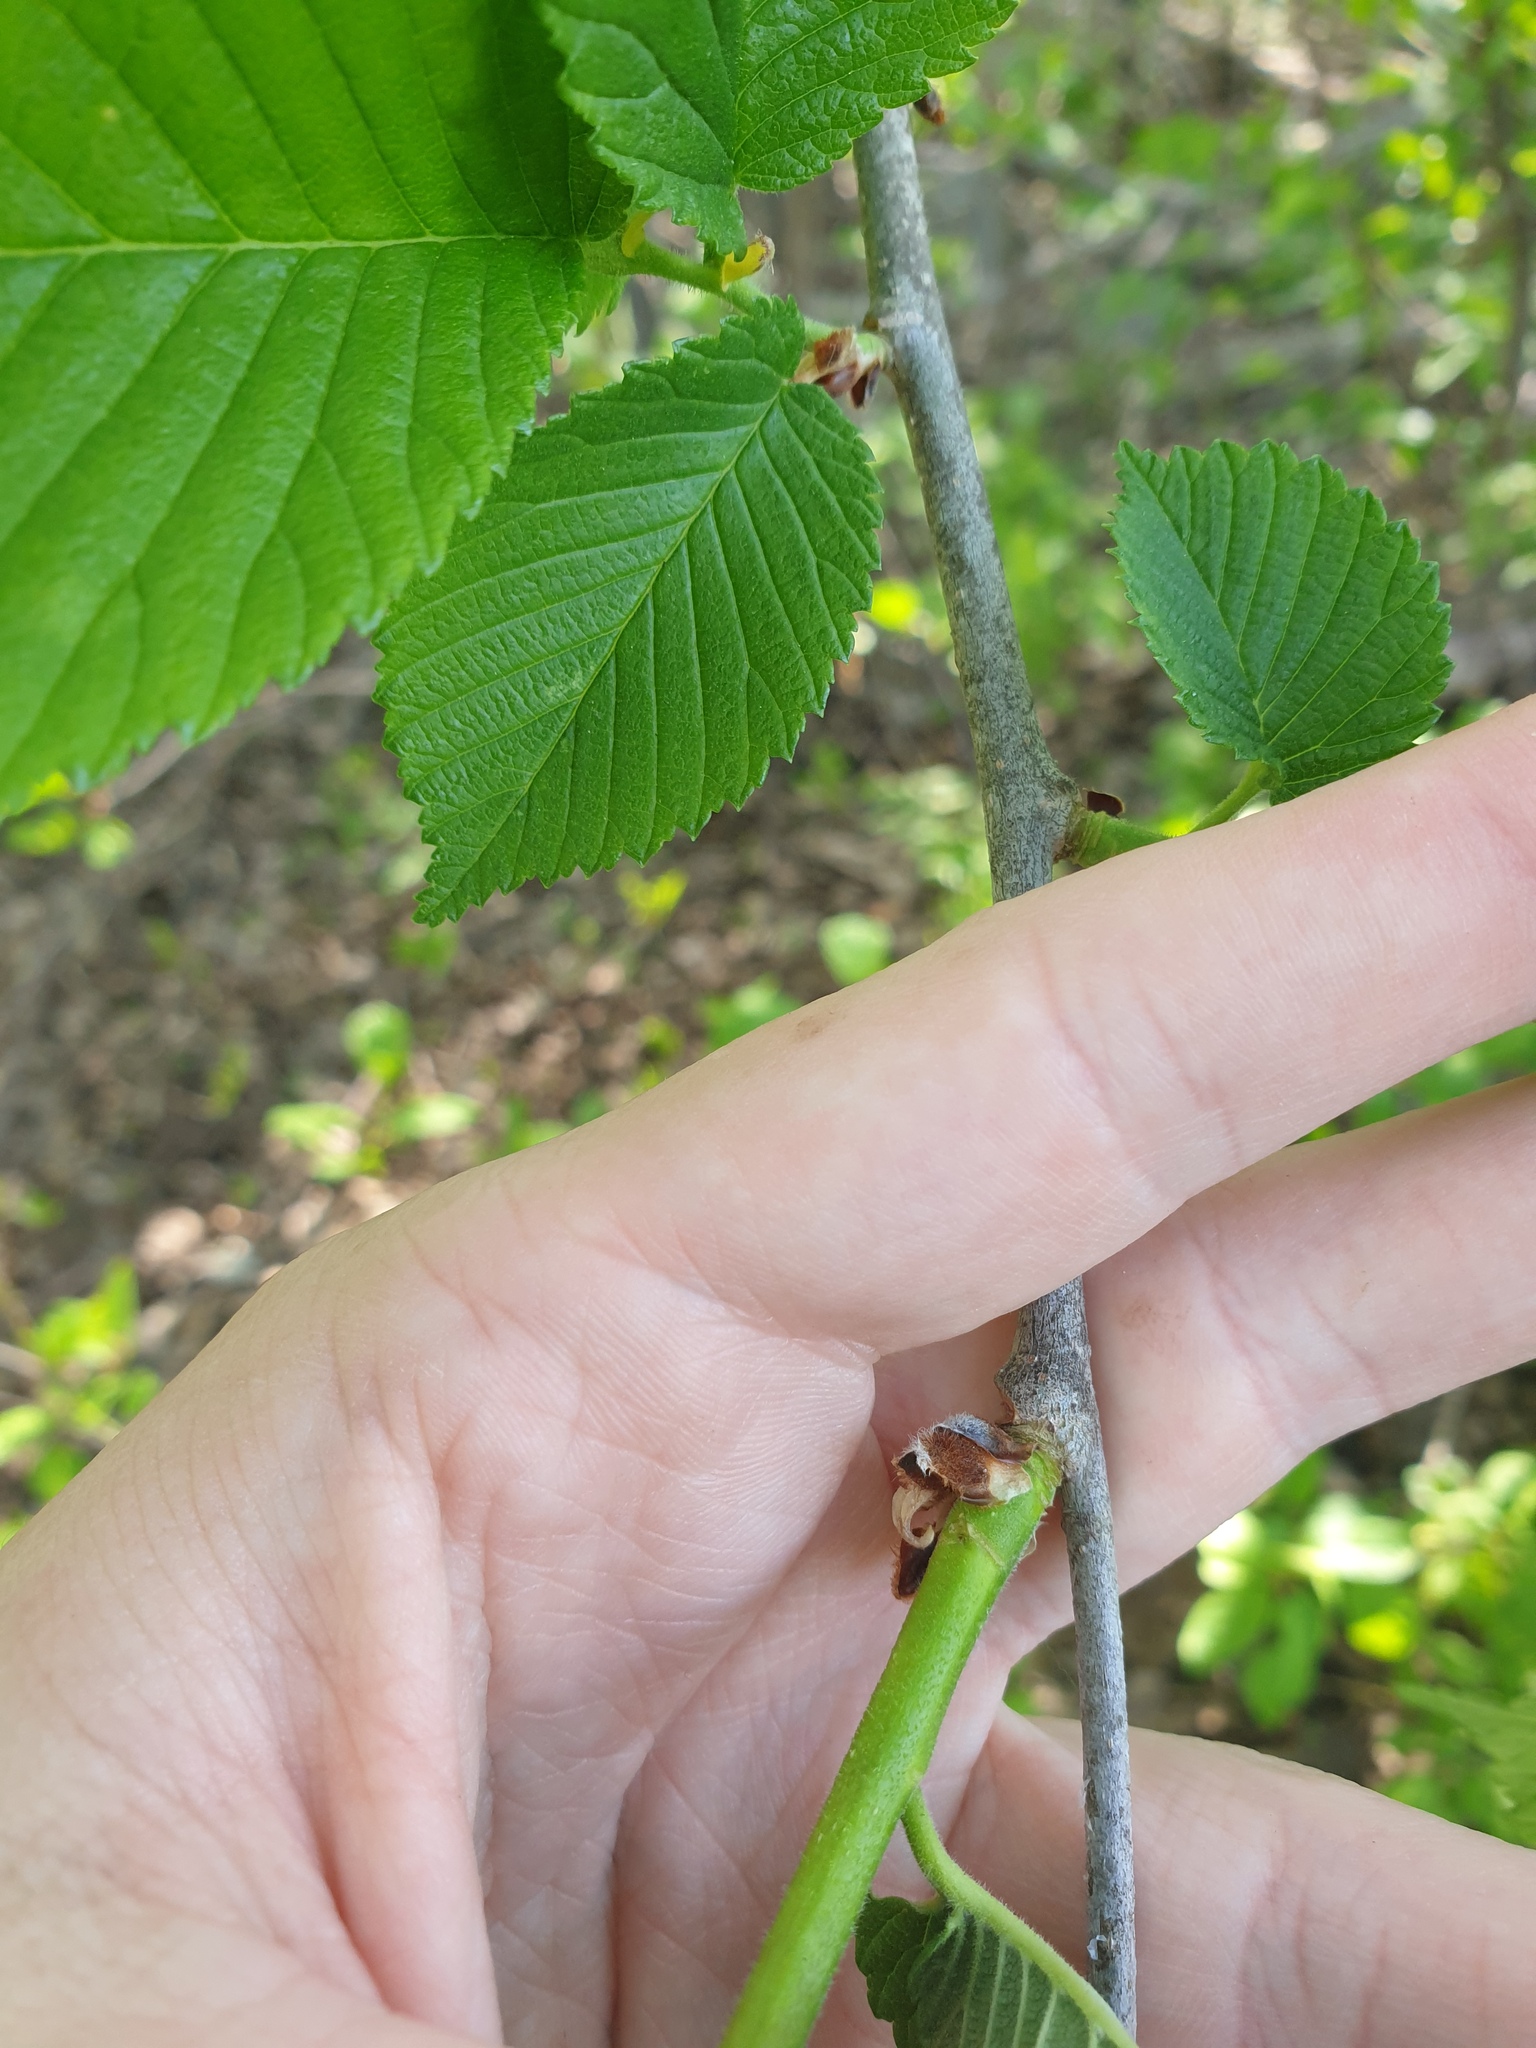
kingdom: Plantae
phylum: Tracheophyta
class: Magnoliopsida
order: Rosales
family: Ulmaceae
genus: Ulmus
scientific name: Ulmus rubra
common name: Slippery elm
